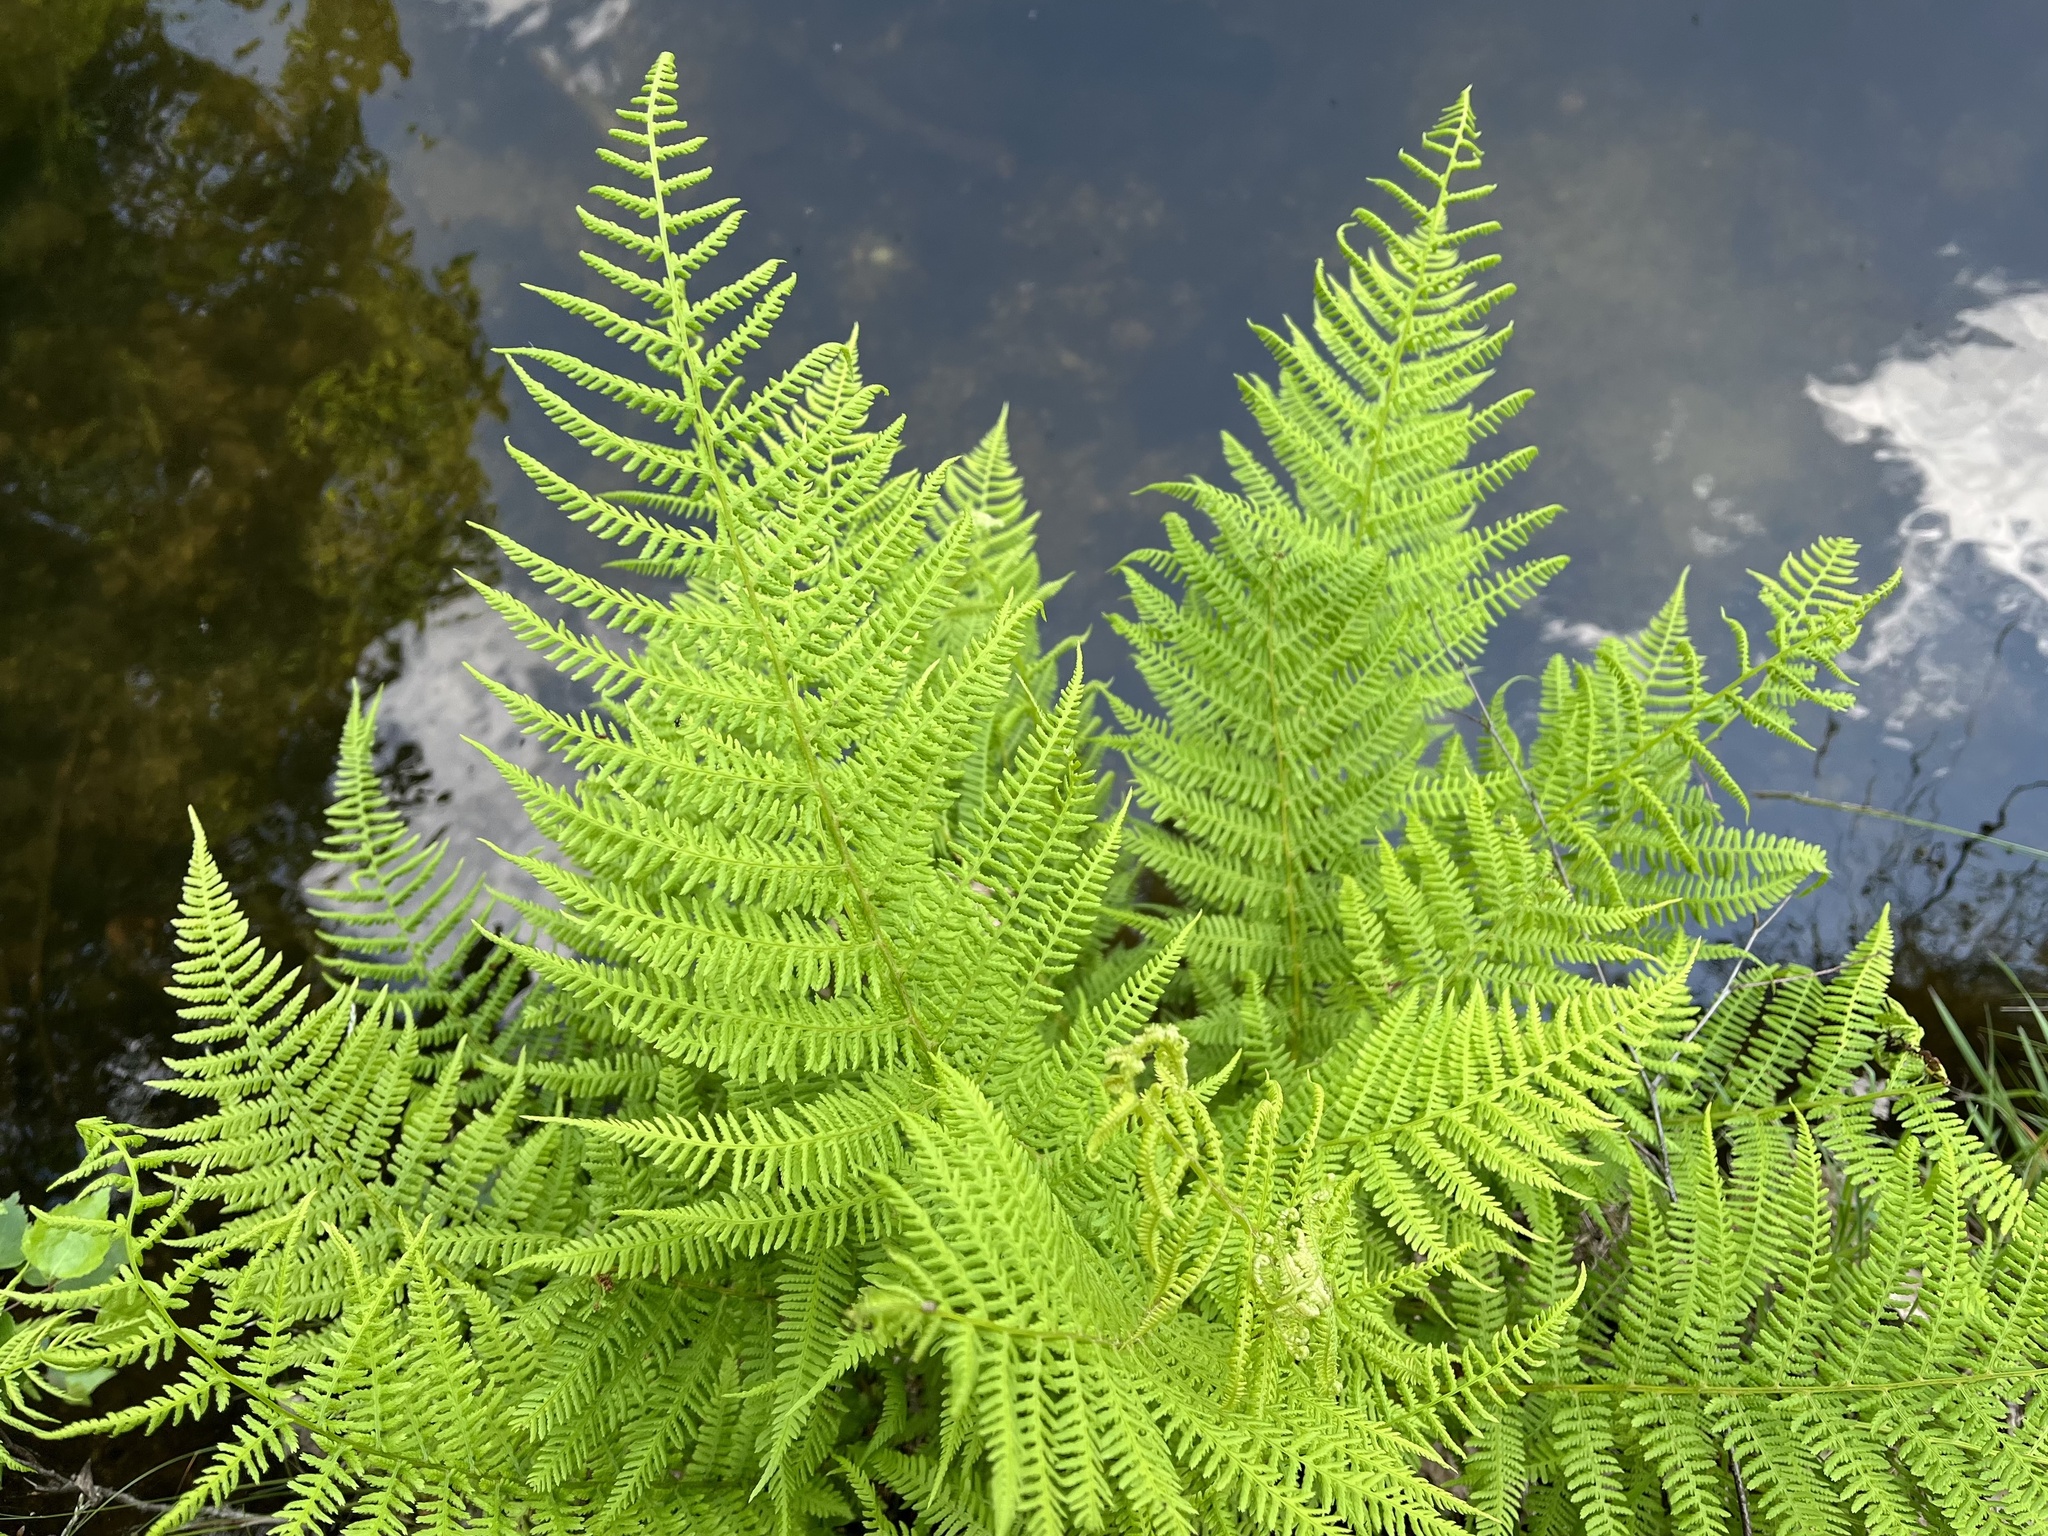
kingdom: Plantae
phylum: Tracheophyta
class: Polypodiopsida
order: Polypodiales
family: Athyriaceae
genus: Athyrium
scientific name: Athyrium filix-femina
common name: Lady fern
